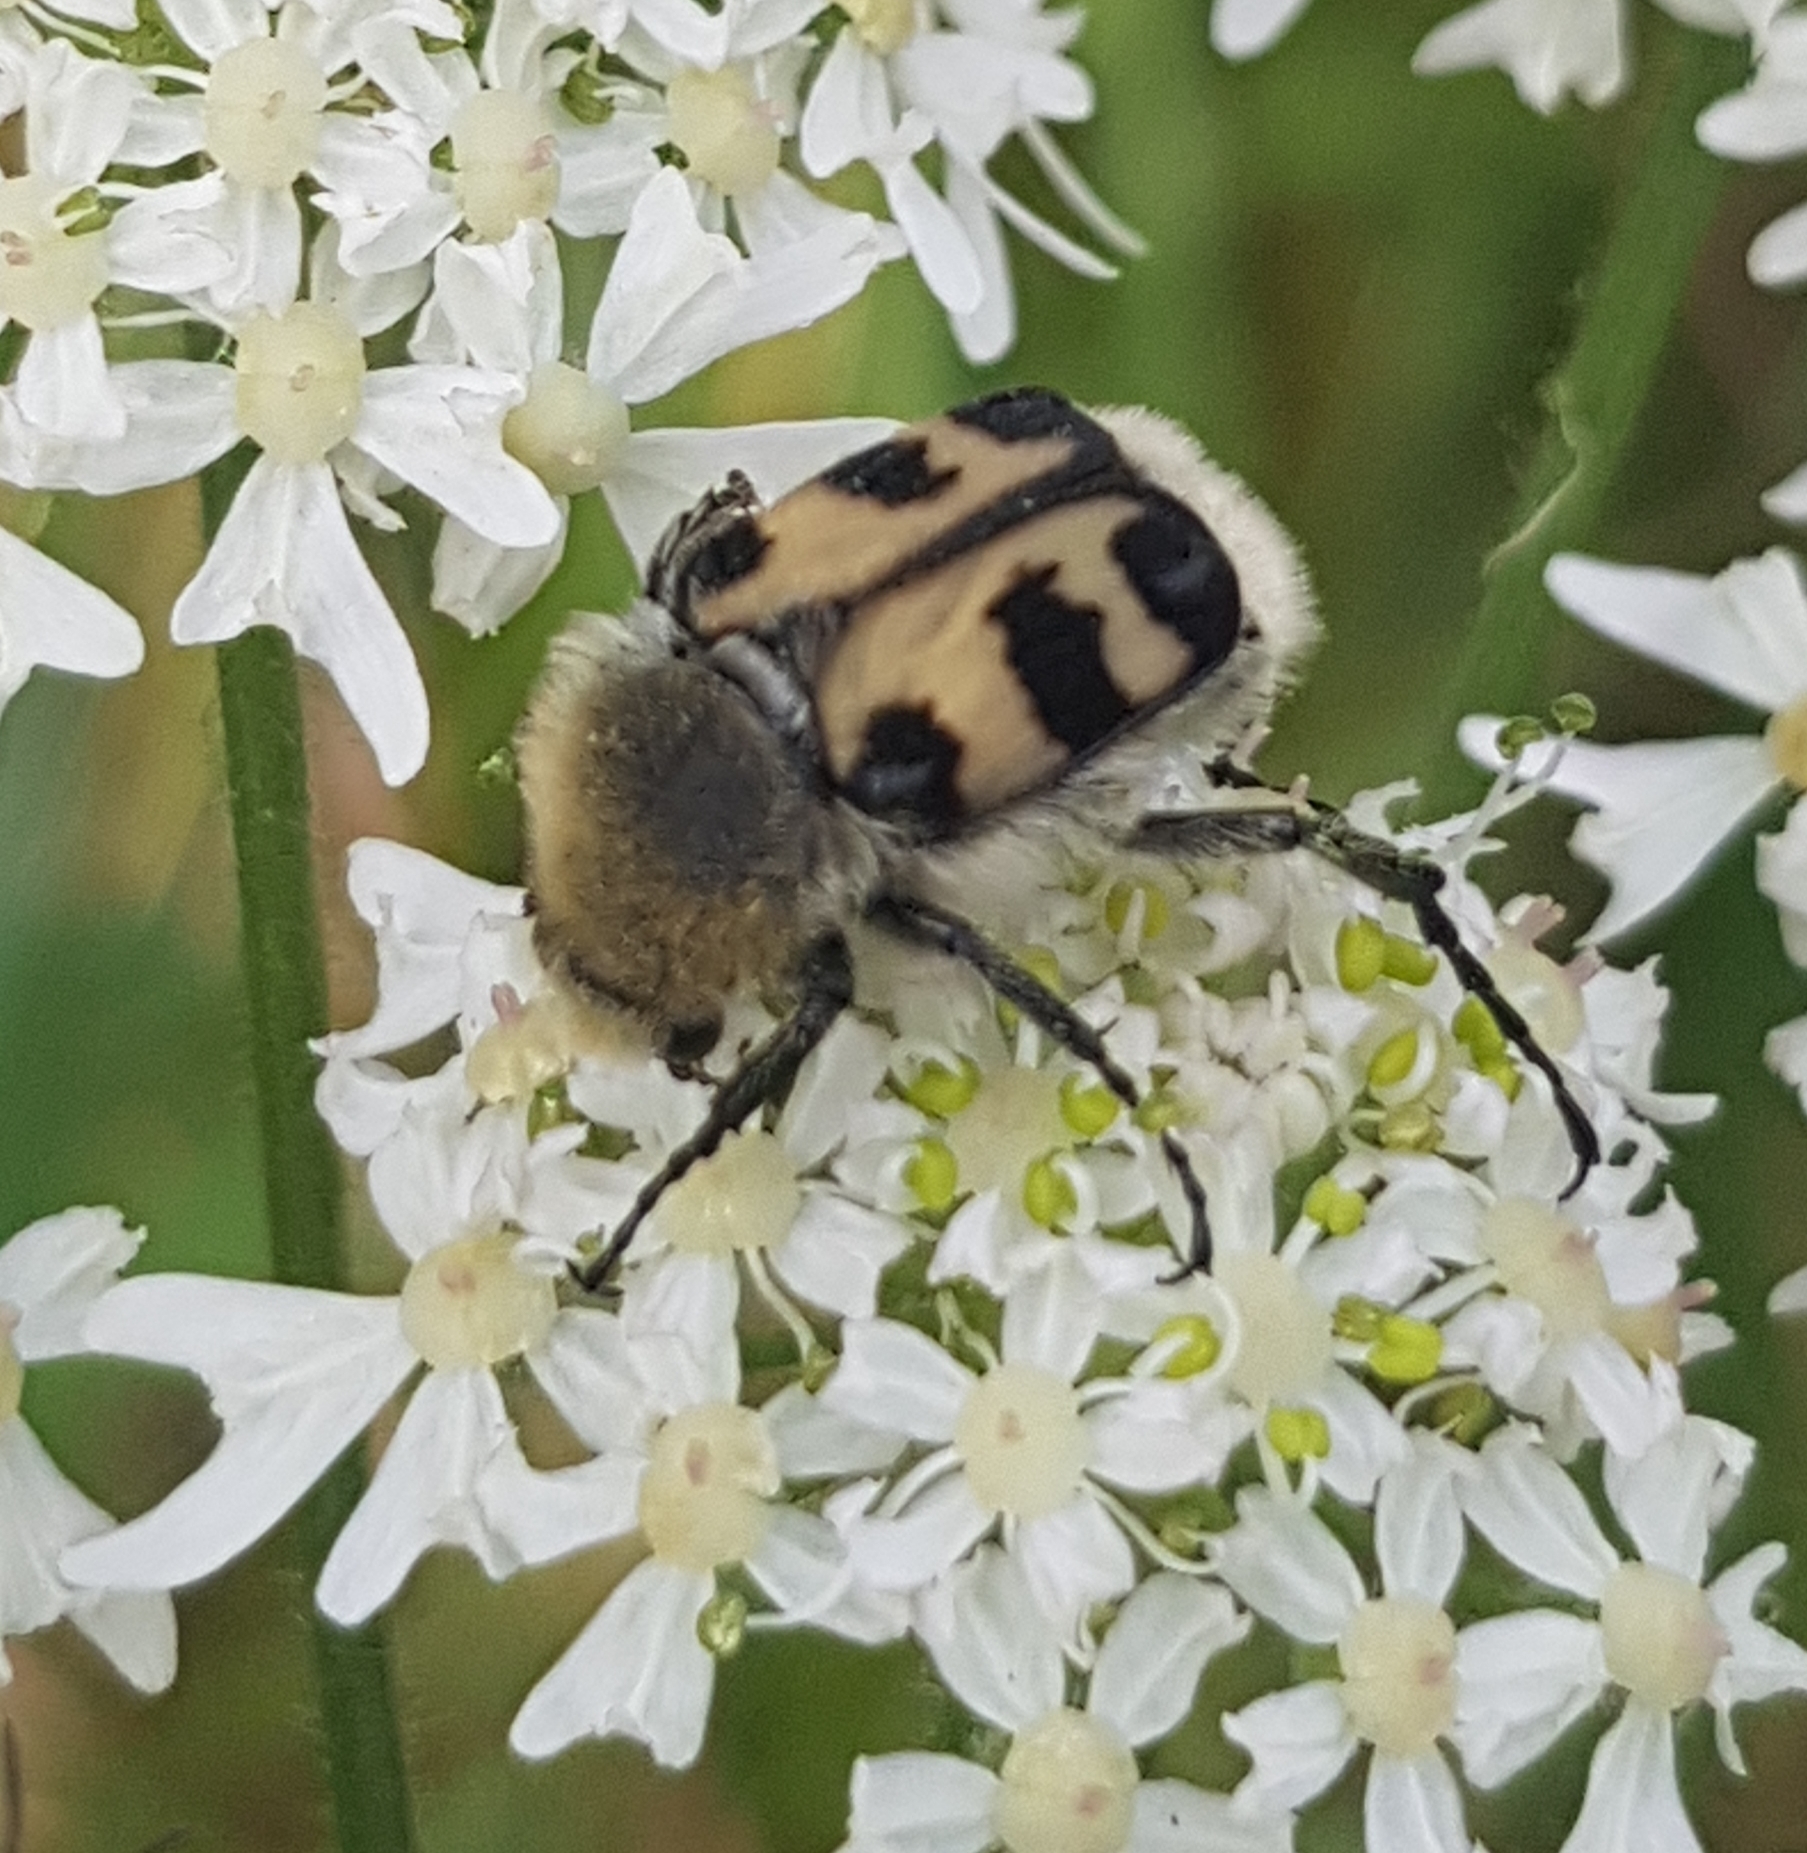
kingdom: Animalia
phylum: Arthropoda
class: Insecta
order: Coleoptera
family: Scarabaeidae
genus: Trichius
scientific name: Trichius gallicus
